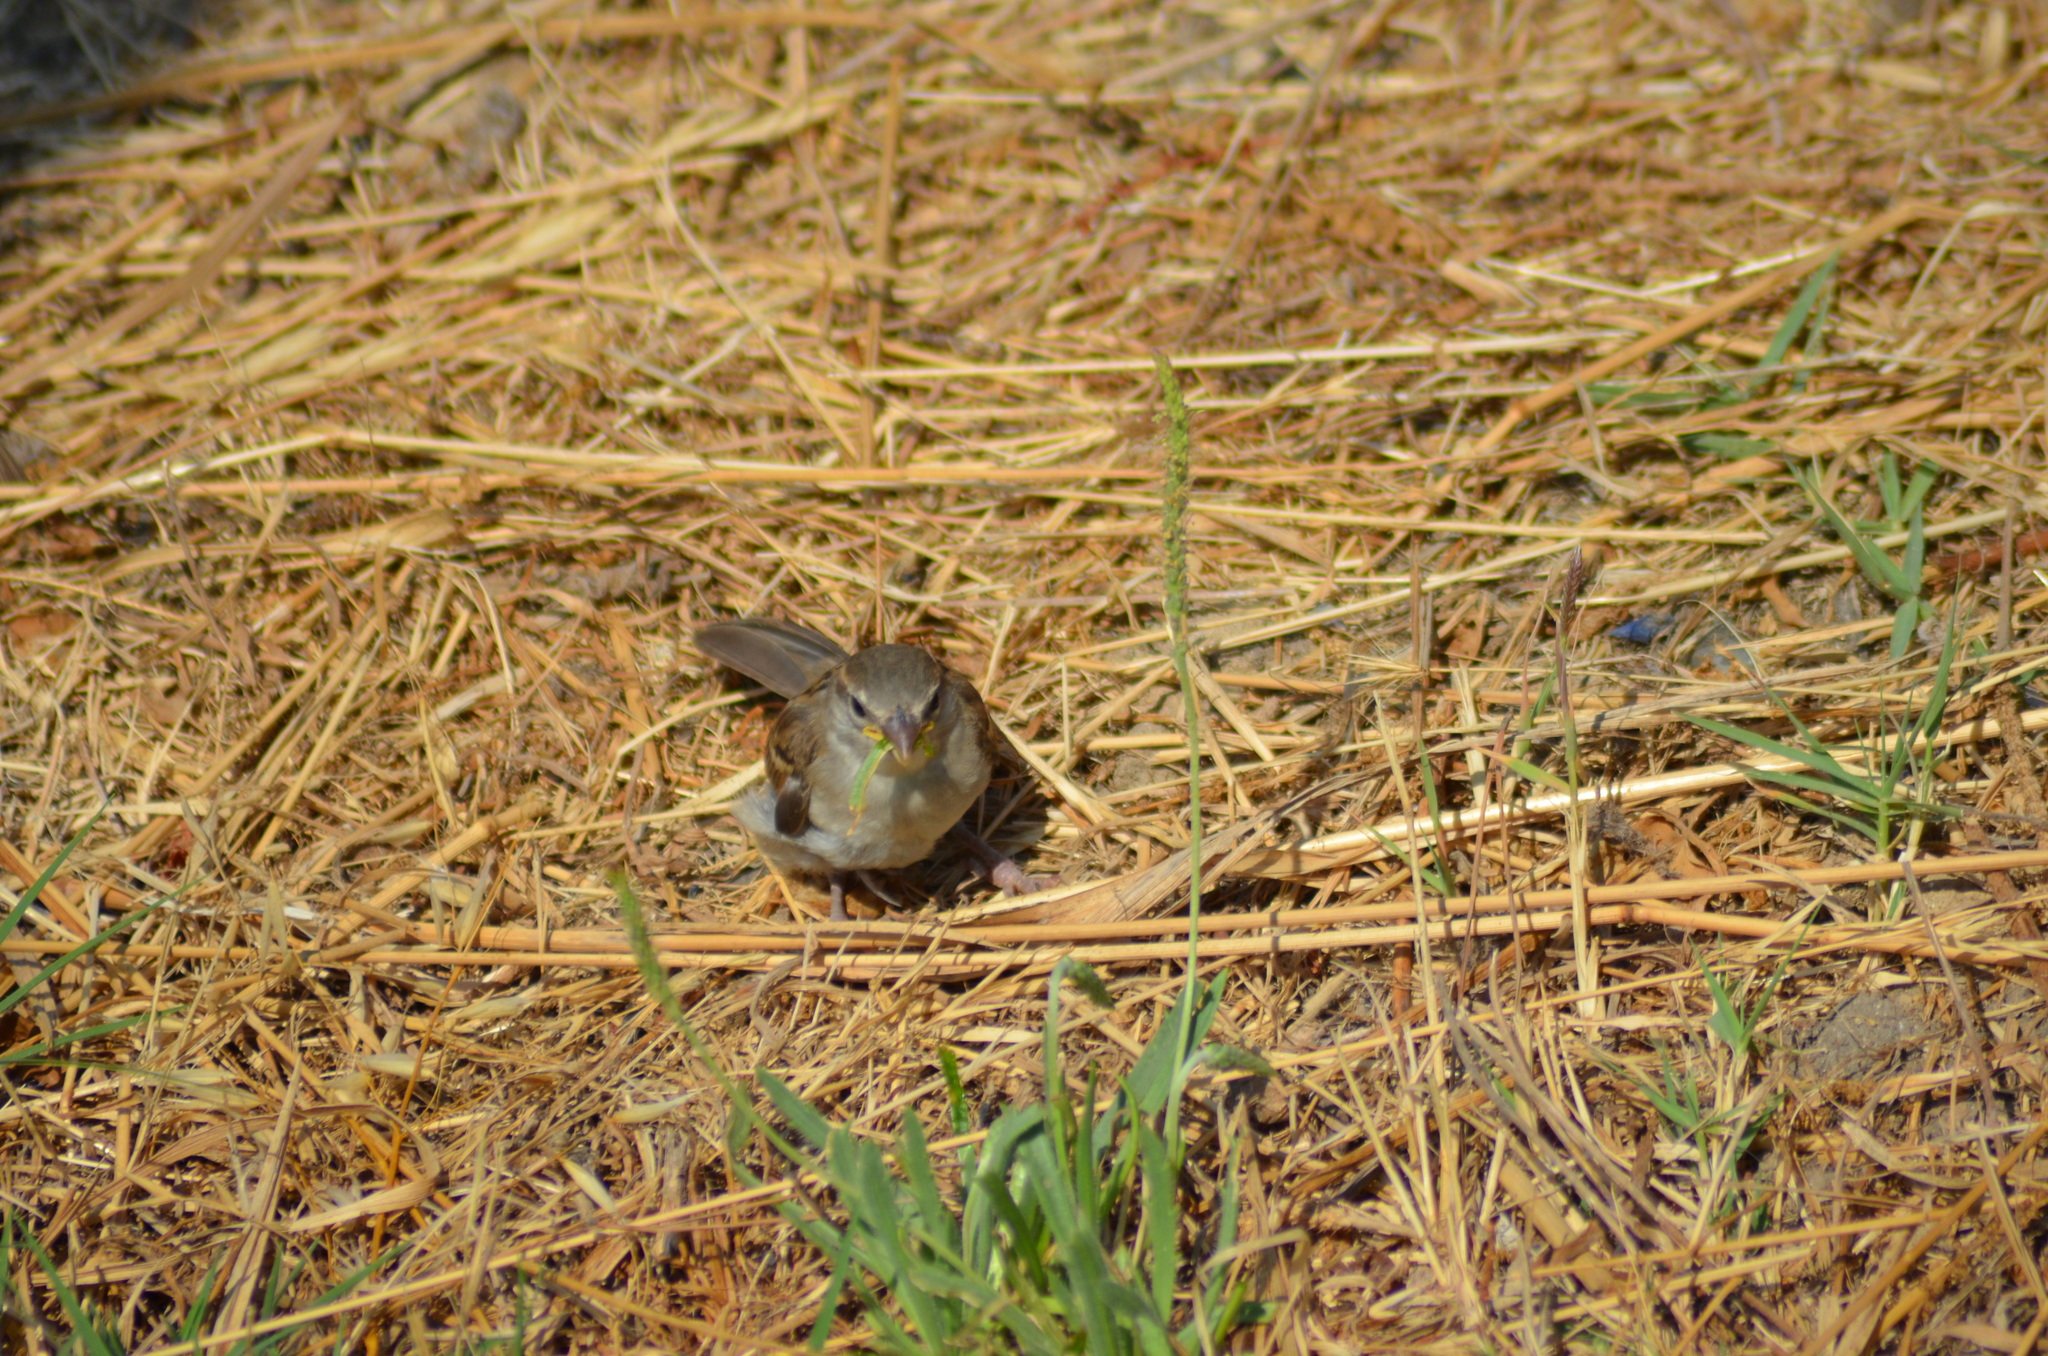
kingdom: Animalia
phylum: Chordata
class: Aves
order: Passeriformes
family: Passeridae
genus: Passer
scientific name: Passer domesticus
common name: House sparrow
